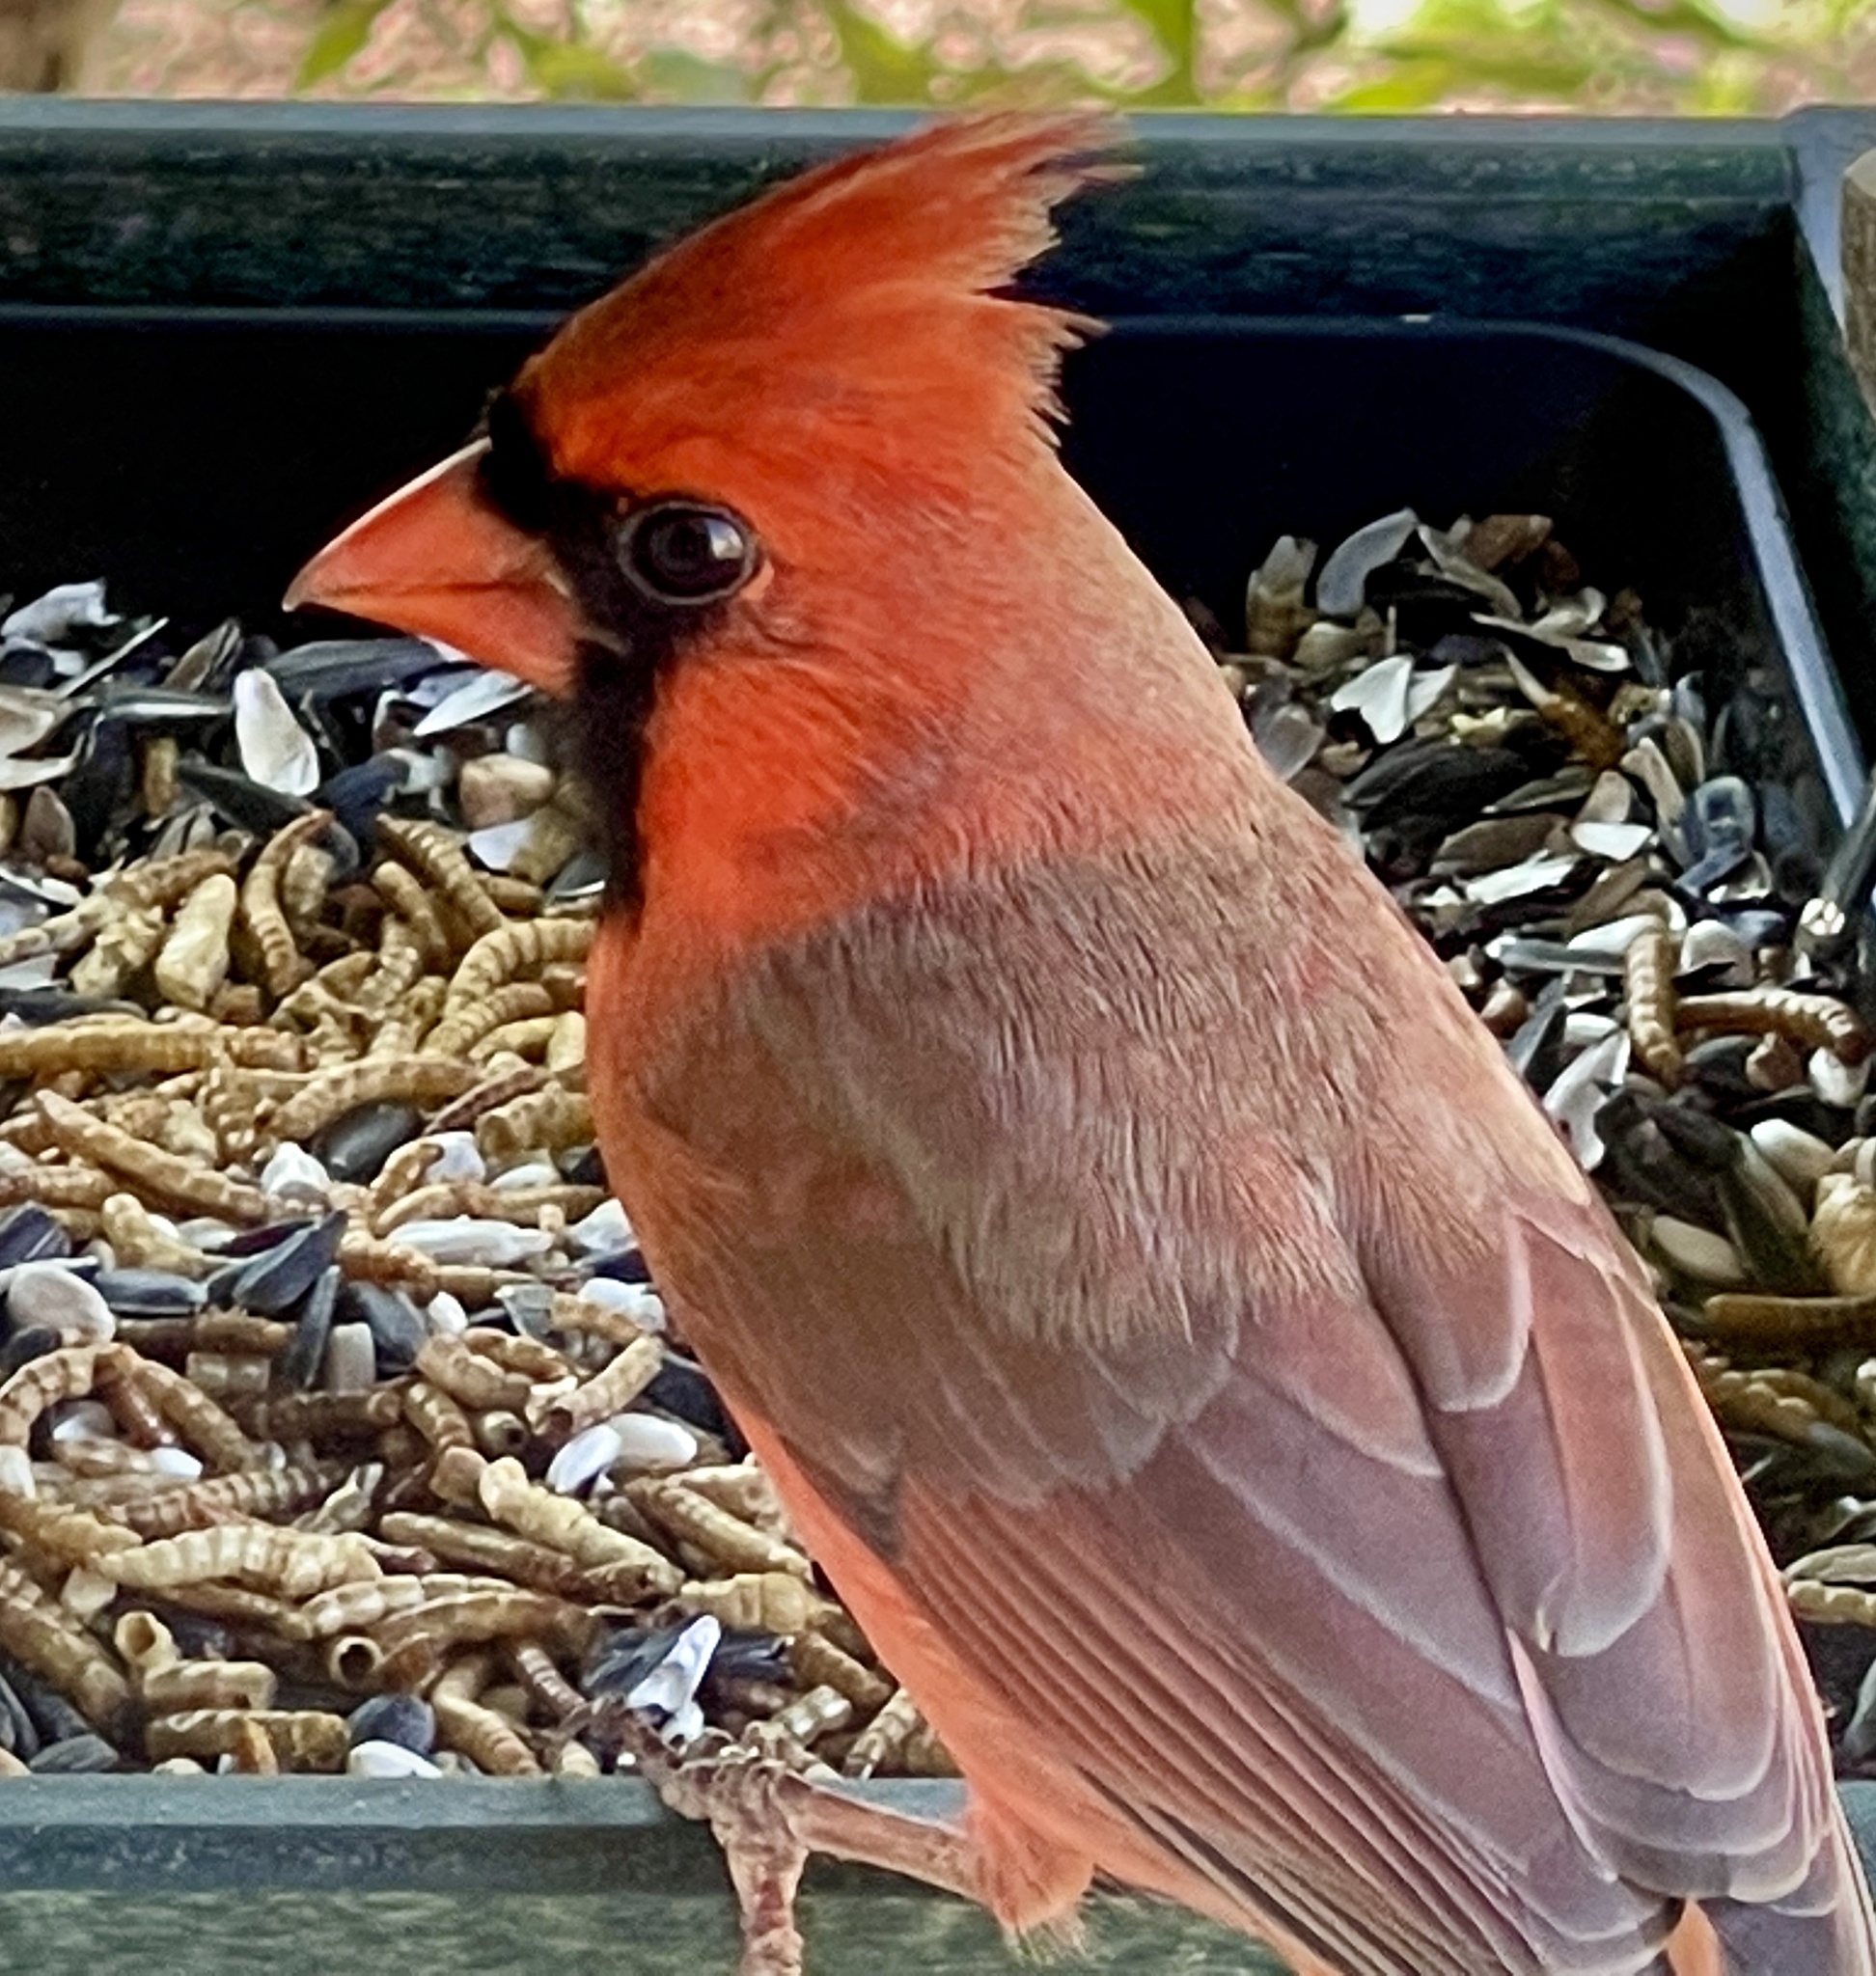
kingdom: Animalia
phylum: Chordata
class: Aves
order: Passeriformes
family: Cardinalidae
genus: Cardinalis
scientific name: Cardinalis cardinalis
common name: Northern cardinal
